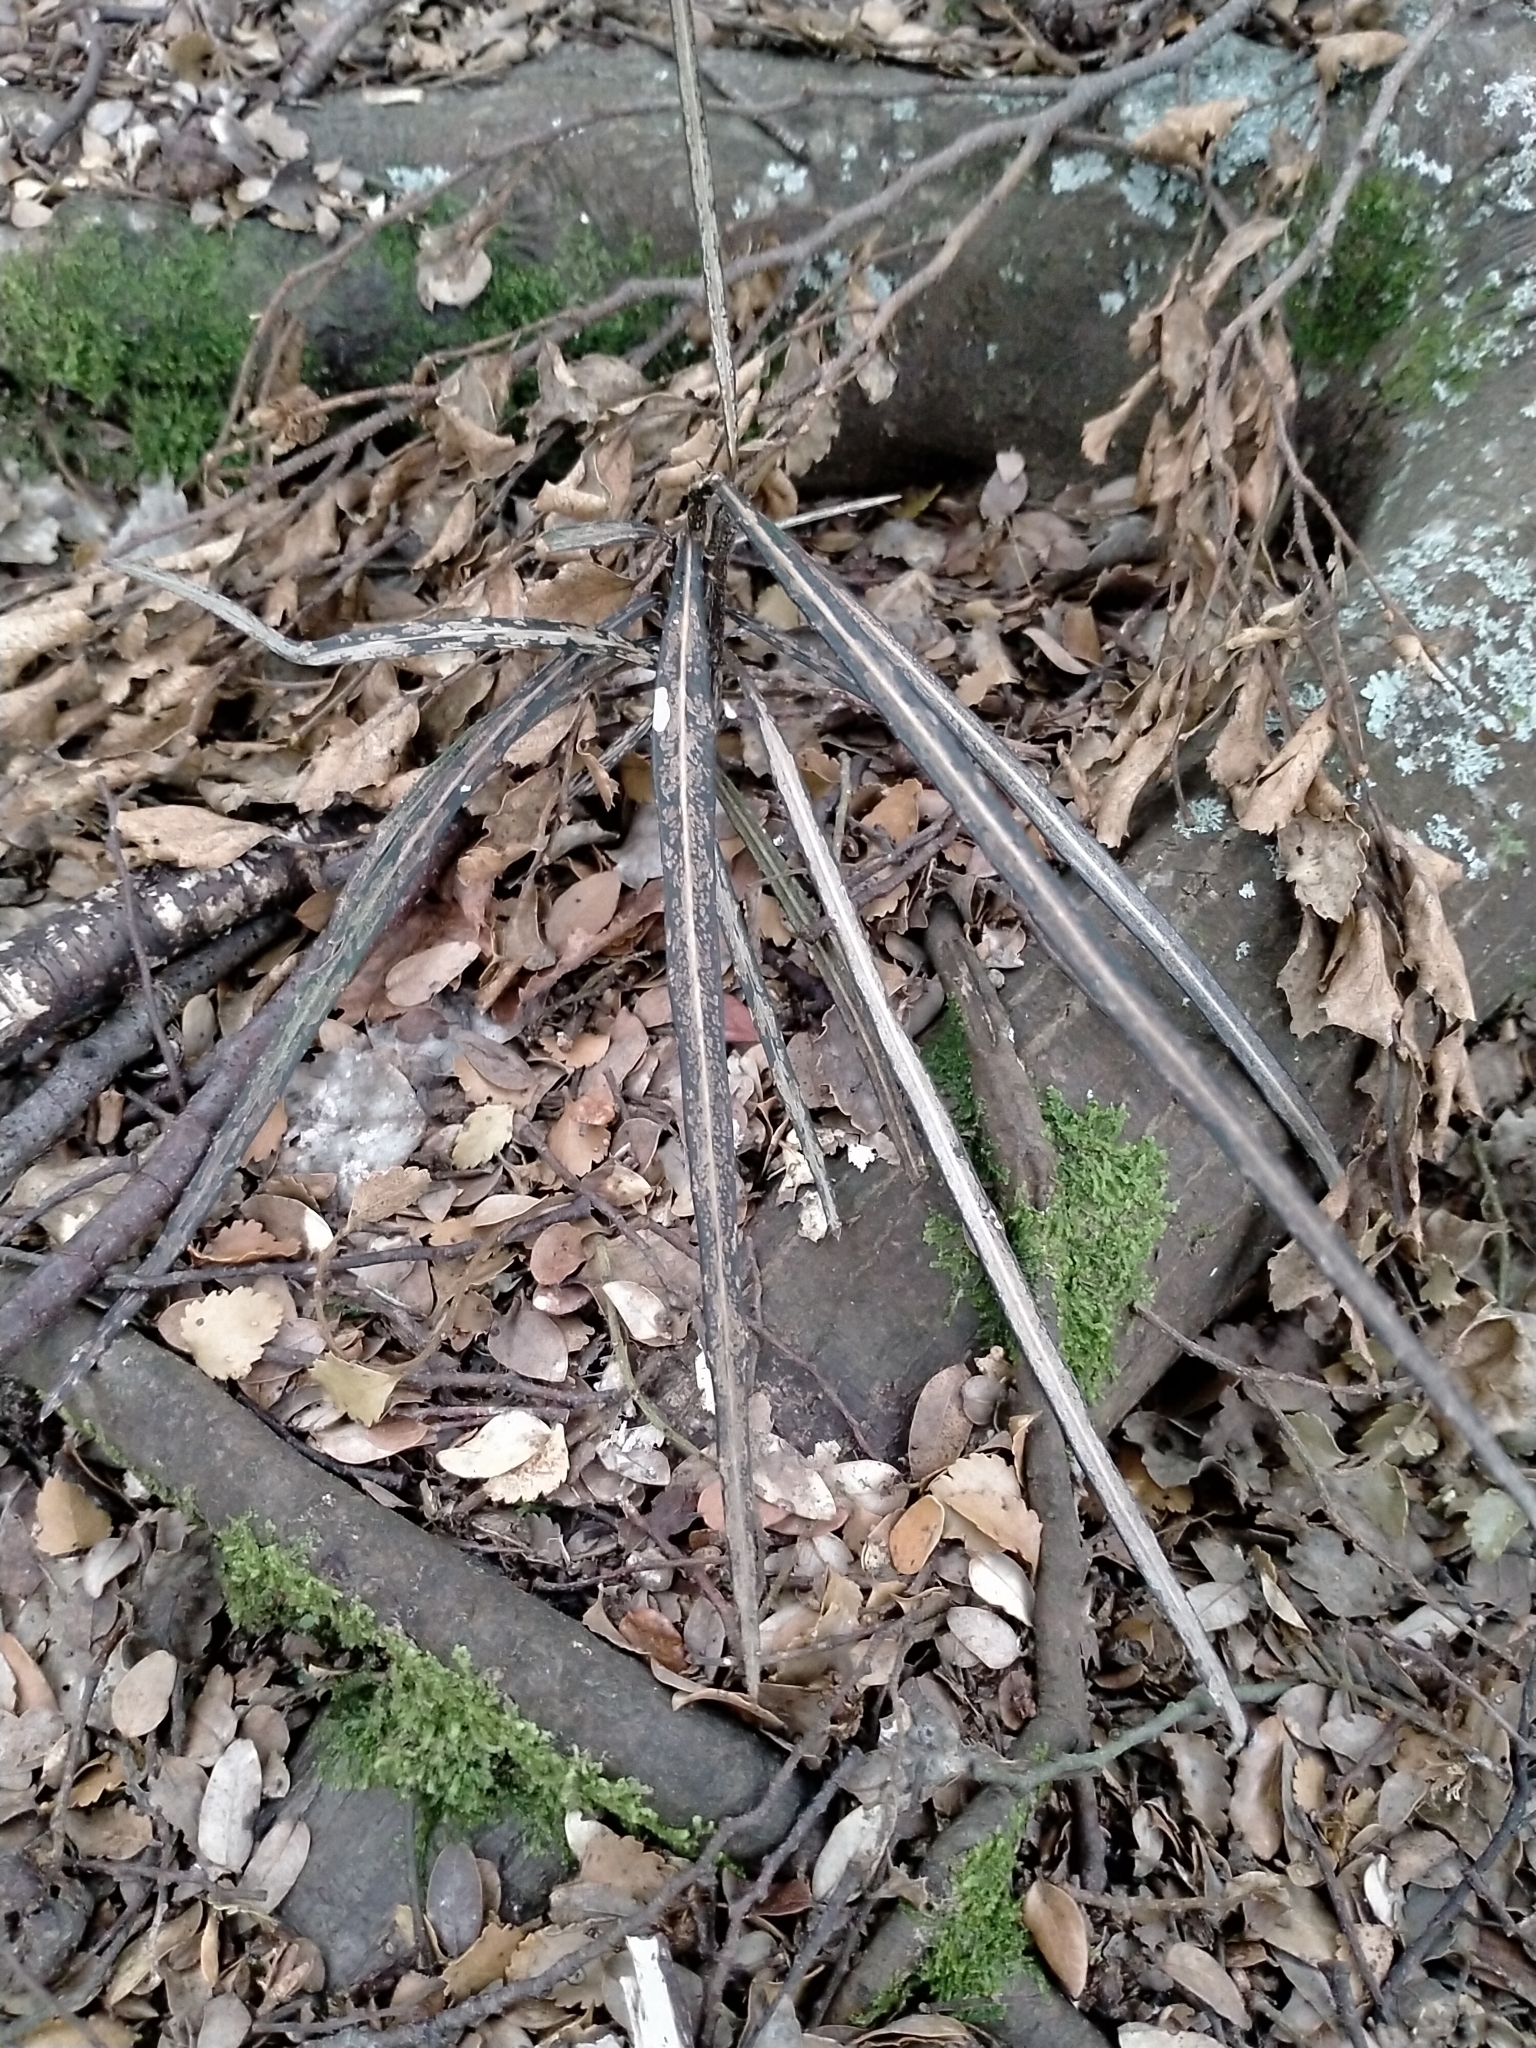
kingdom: Plantae
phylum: Tracheophyta
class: Magnoliopsida
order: Apiales
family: Araliaceae
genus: Pseudopanax
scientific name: Pseudopanax crassifolius
